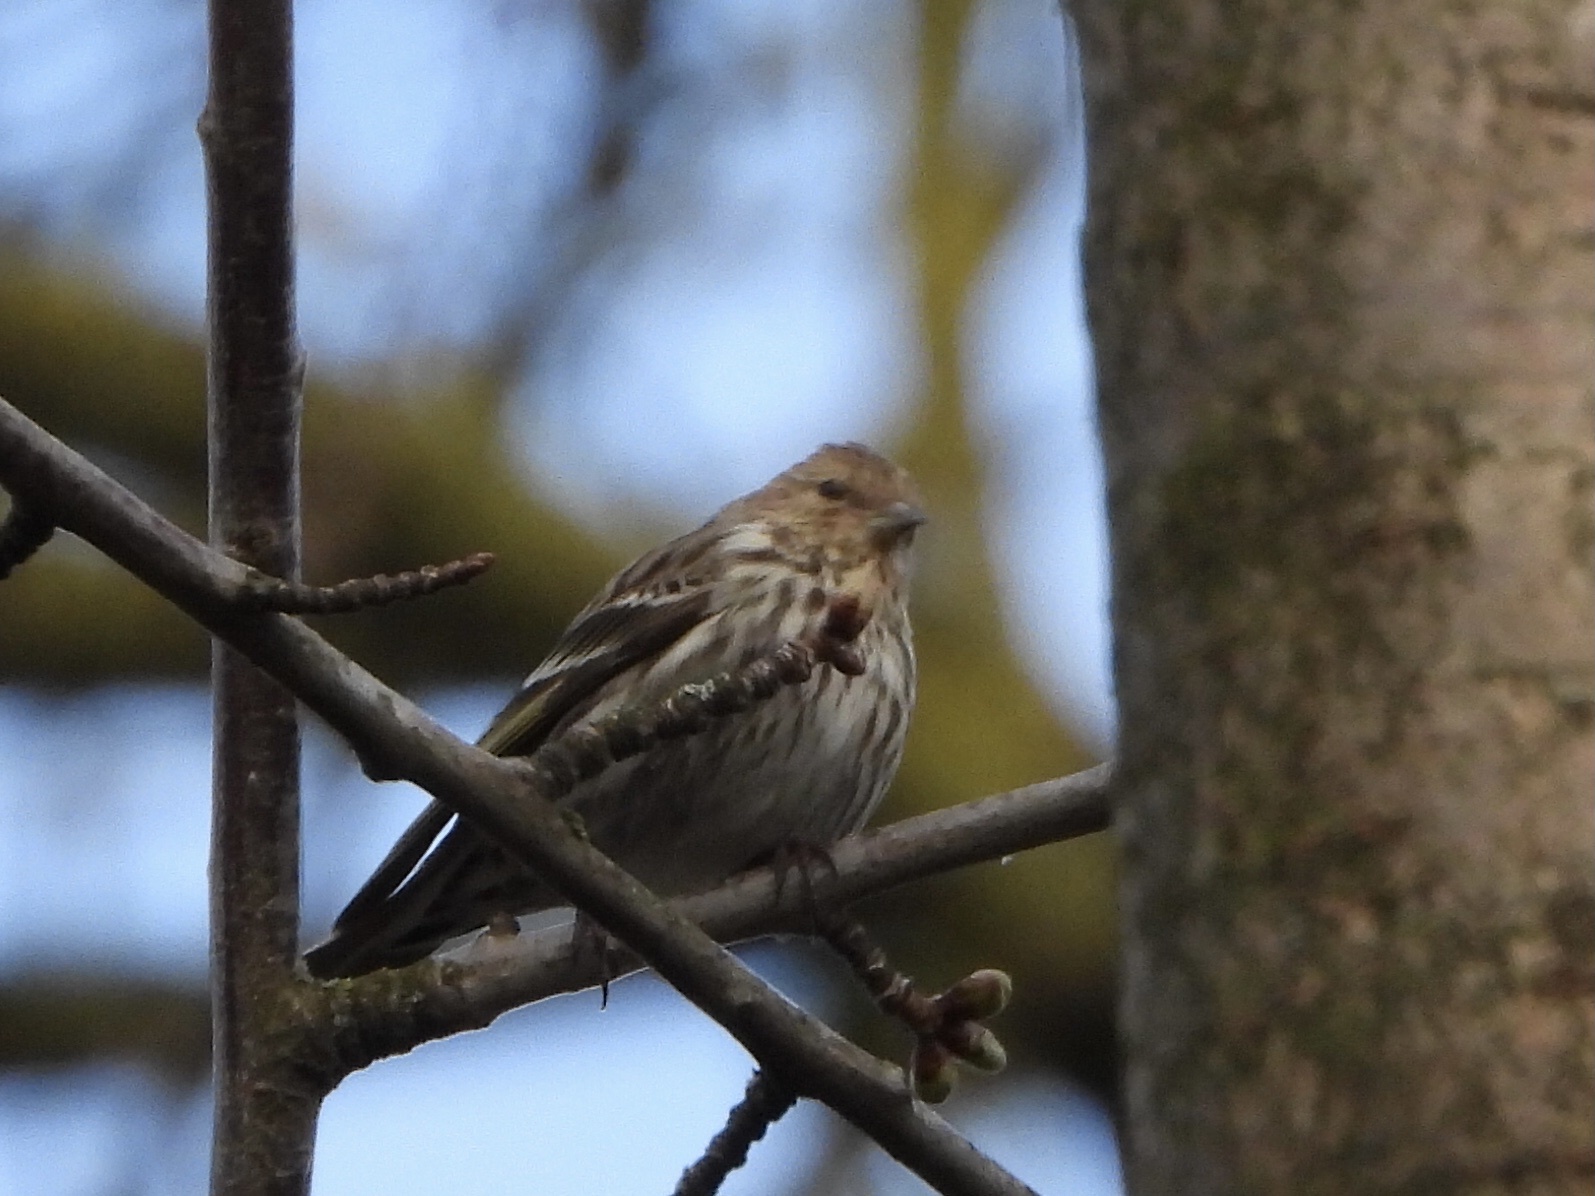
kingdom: Animalia
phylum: Chordata
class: Aves
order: Passeriformes
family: Fringillidae
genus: Spinus
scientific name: Spinus pinus
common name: Pine siskin
